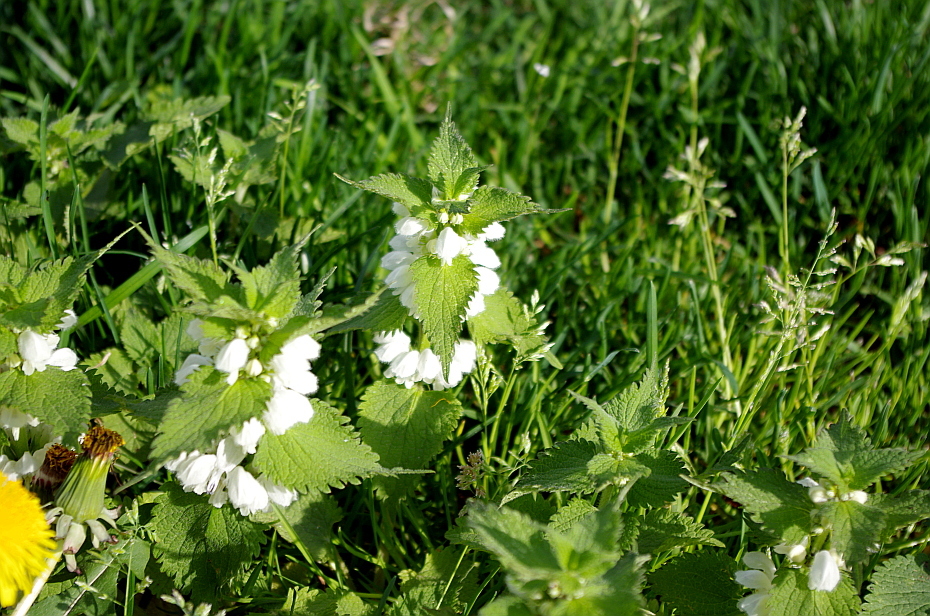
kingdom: Plantae
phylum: Tracheophyta
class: Magnoliopsida
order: Lamiales
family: Lamiaceae
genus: Lamium
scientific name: Lamium album
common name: White dead-nettle
